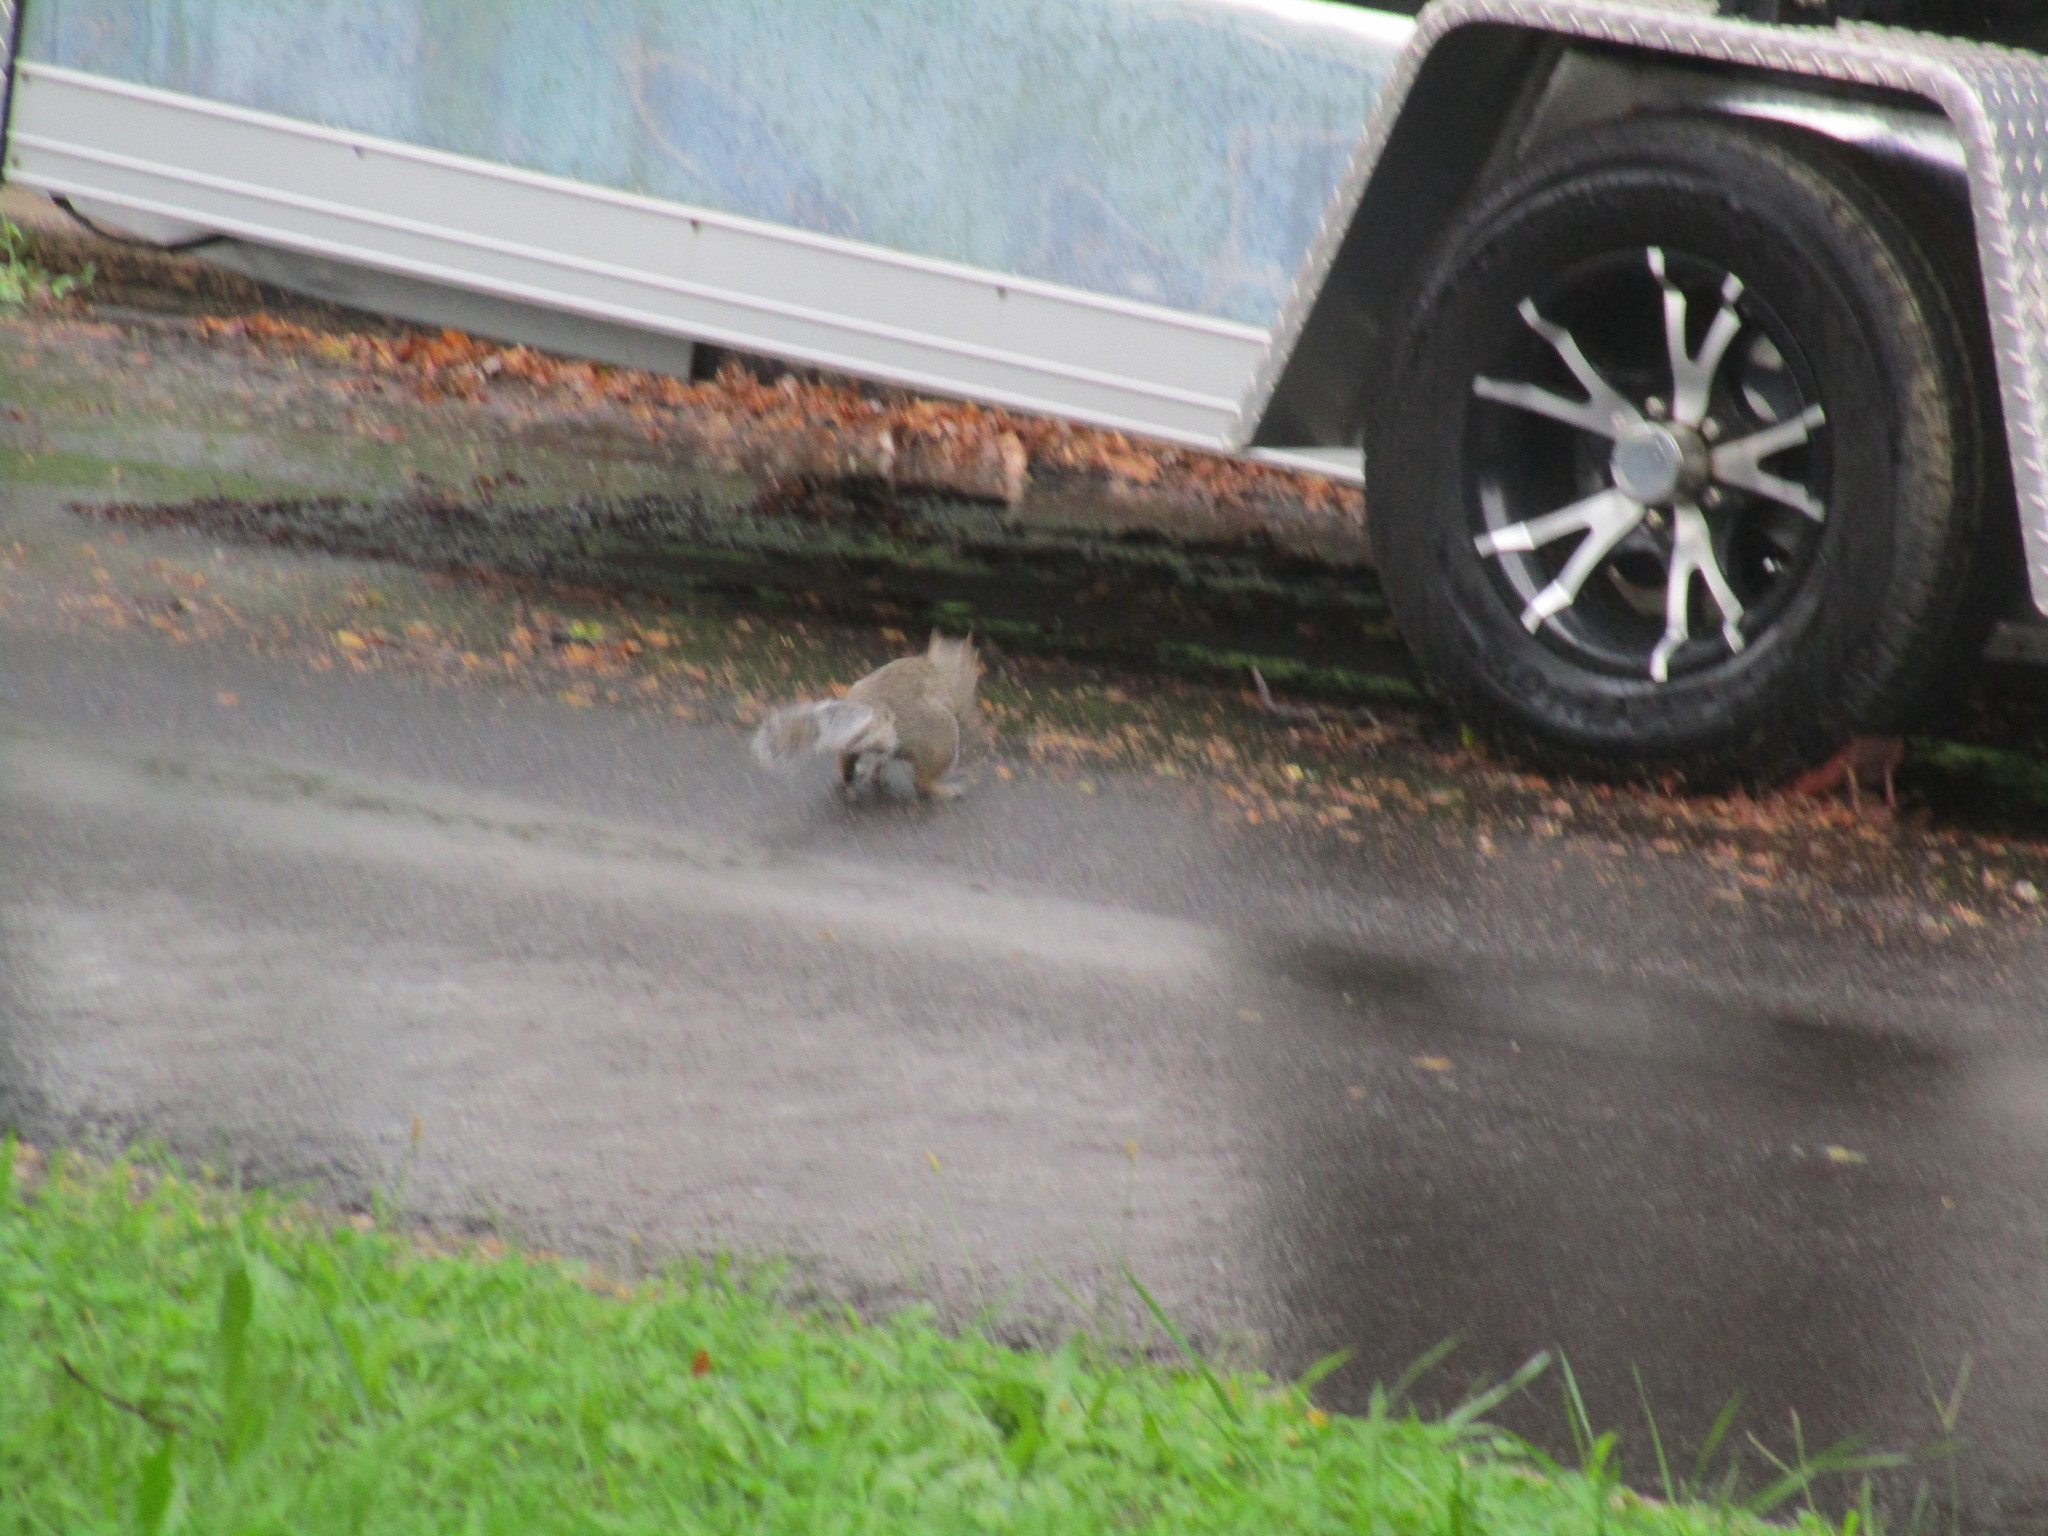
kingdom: Animalia
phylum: Chordata
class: Mammalia
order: Rodentia
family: Sciuridae
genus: Sciurus
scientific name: Sciurus carolinensis
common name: Eastern gray squirrel
